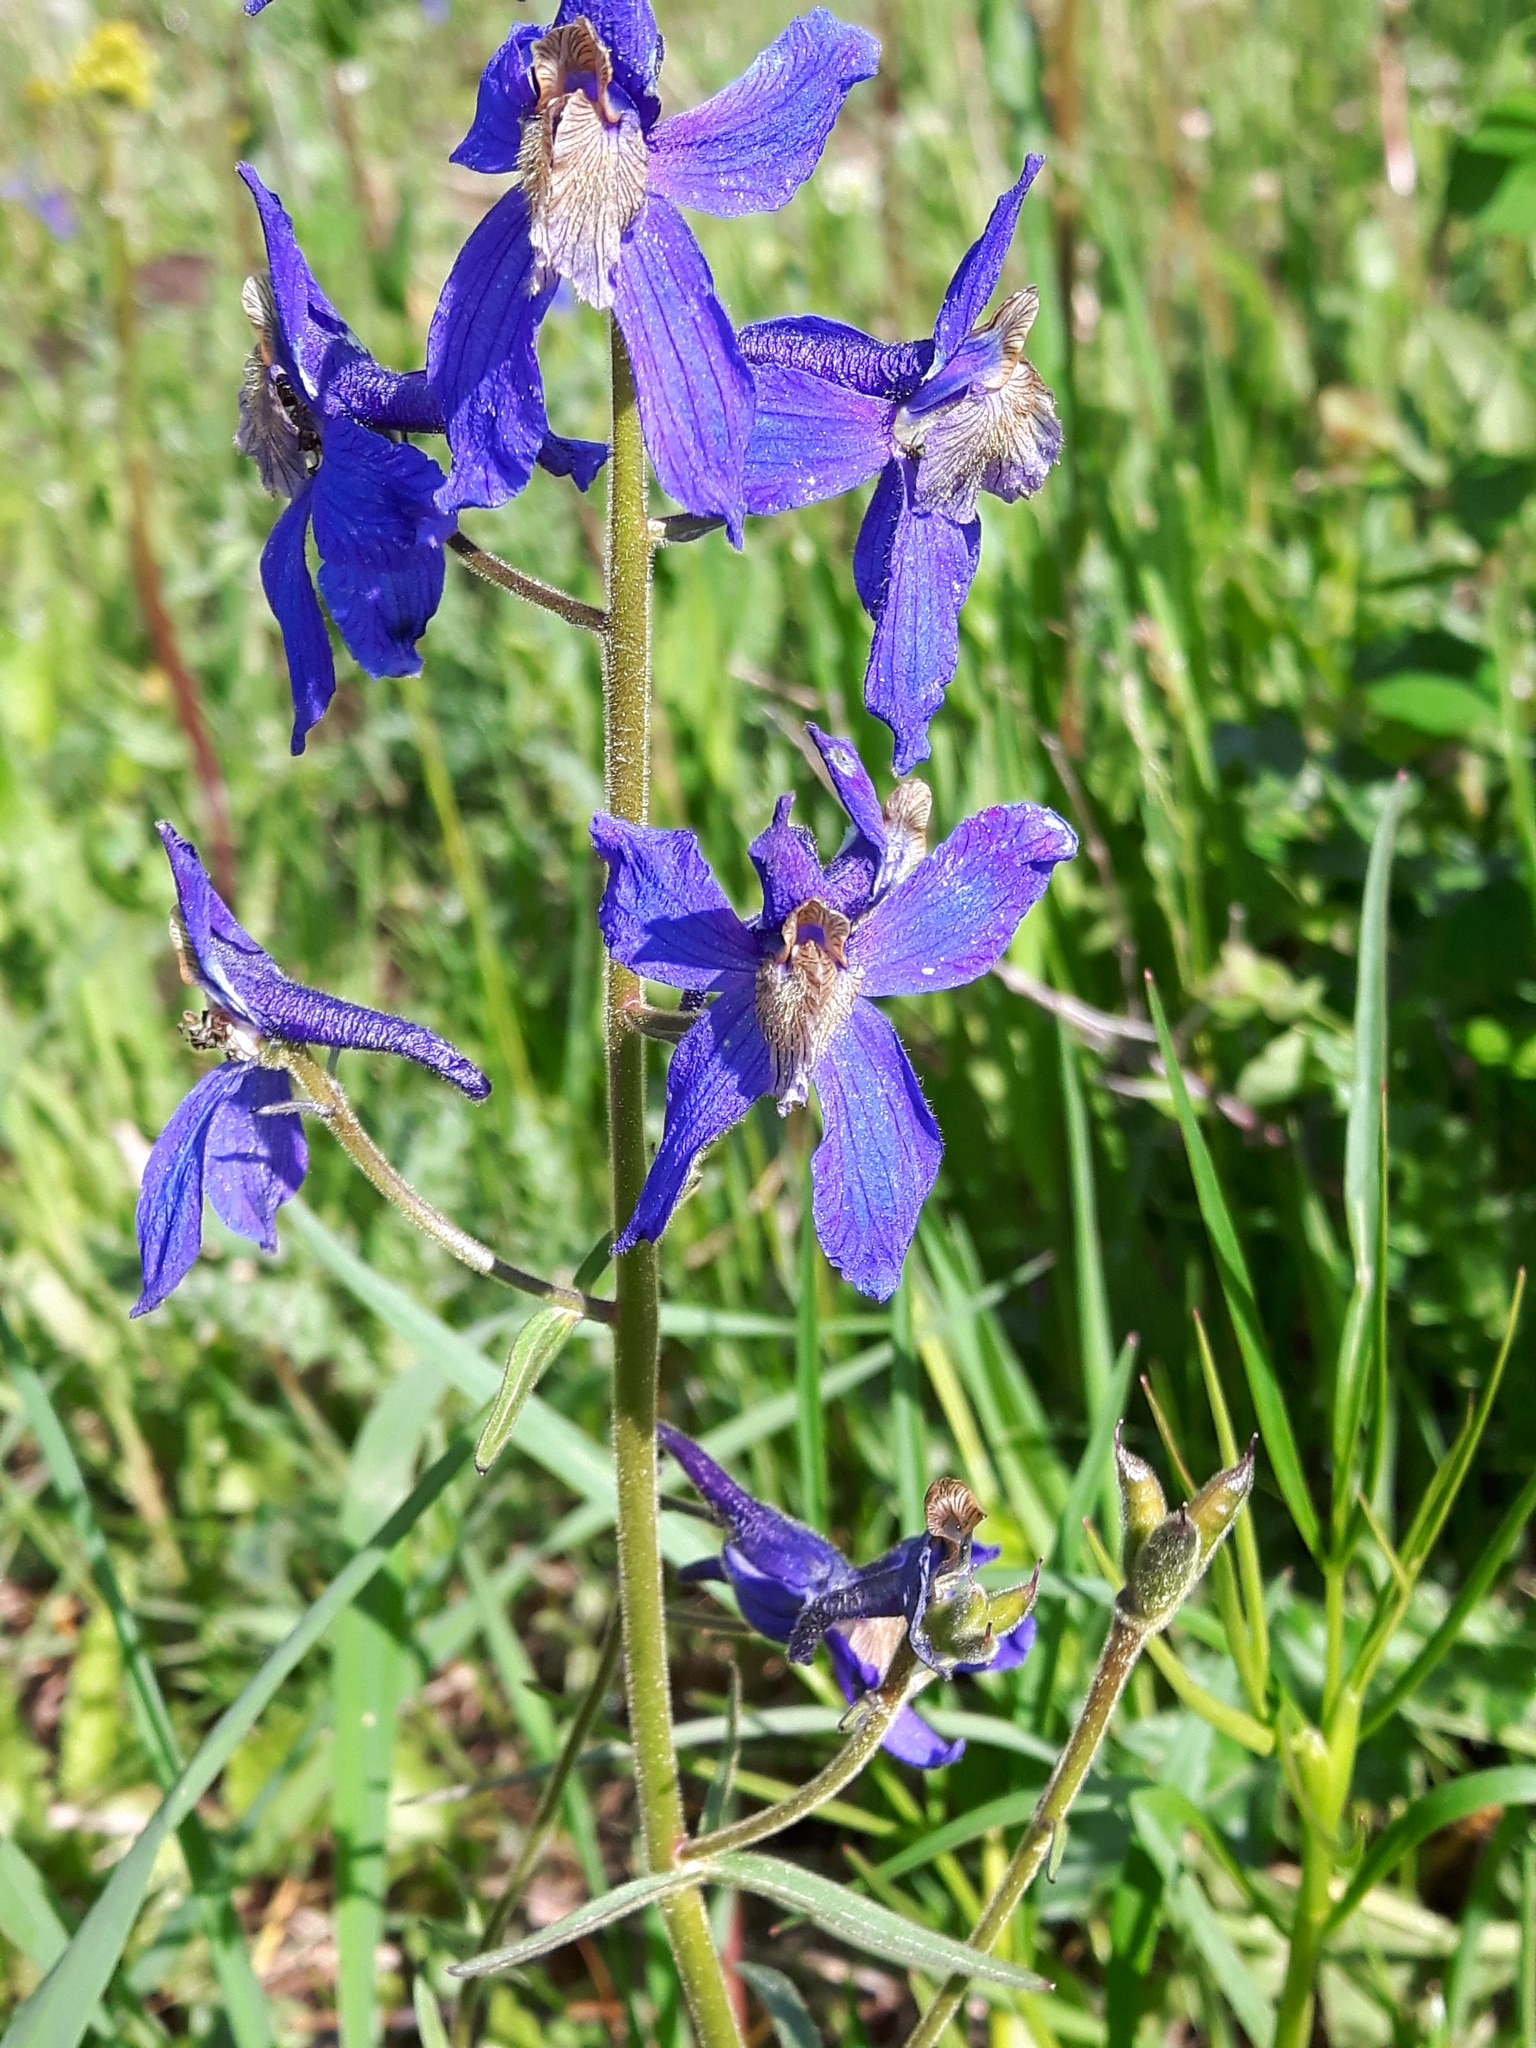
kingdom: Plantae
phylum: Tracheophyta
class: Magnoliopsida
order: Ranunculales
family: Ranunculaceae
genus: Delphinium
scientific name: Delphinium sutherlandii
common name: Sutherland's larkspur
